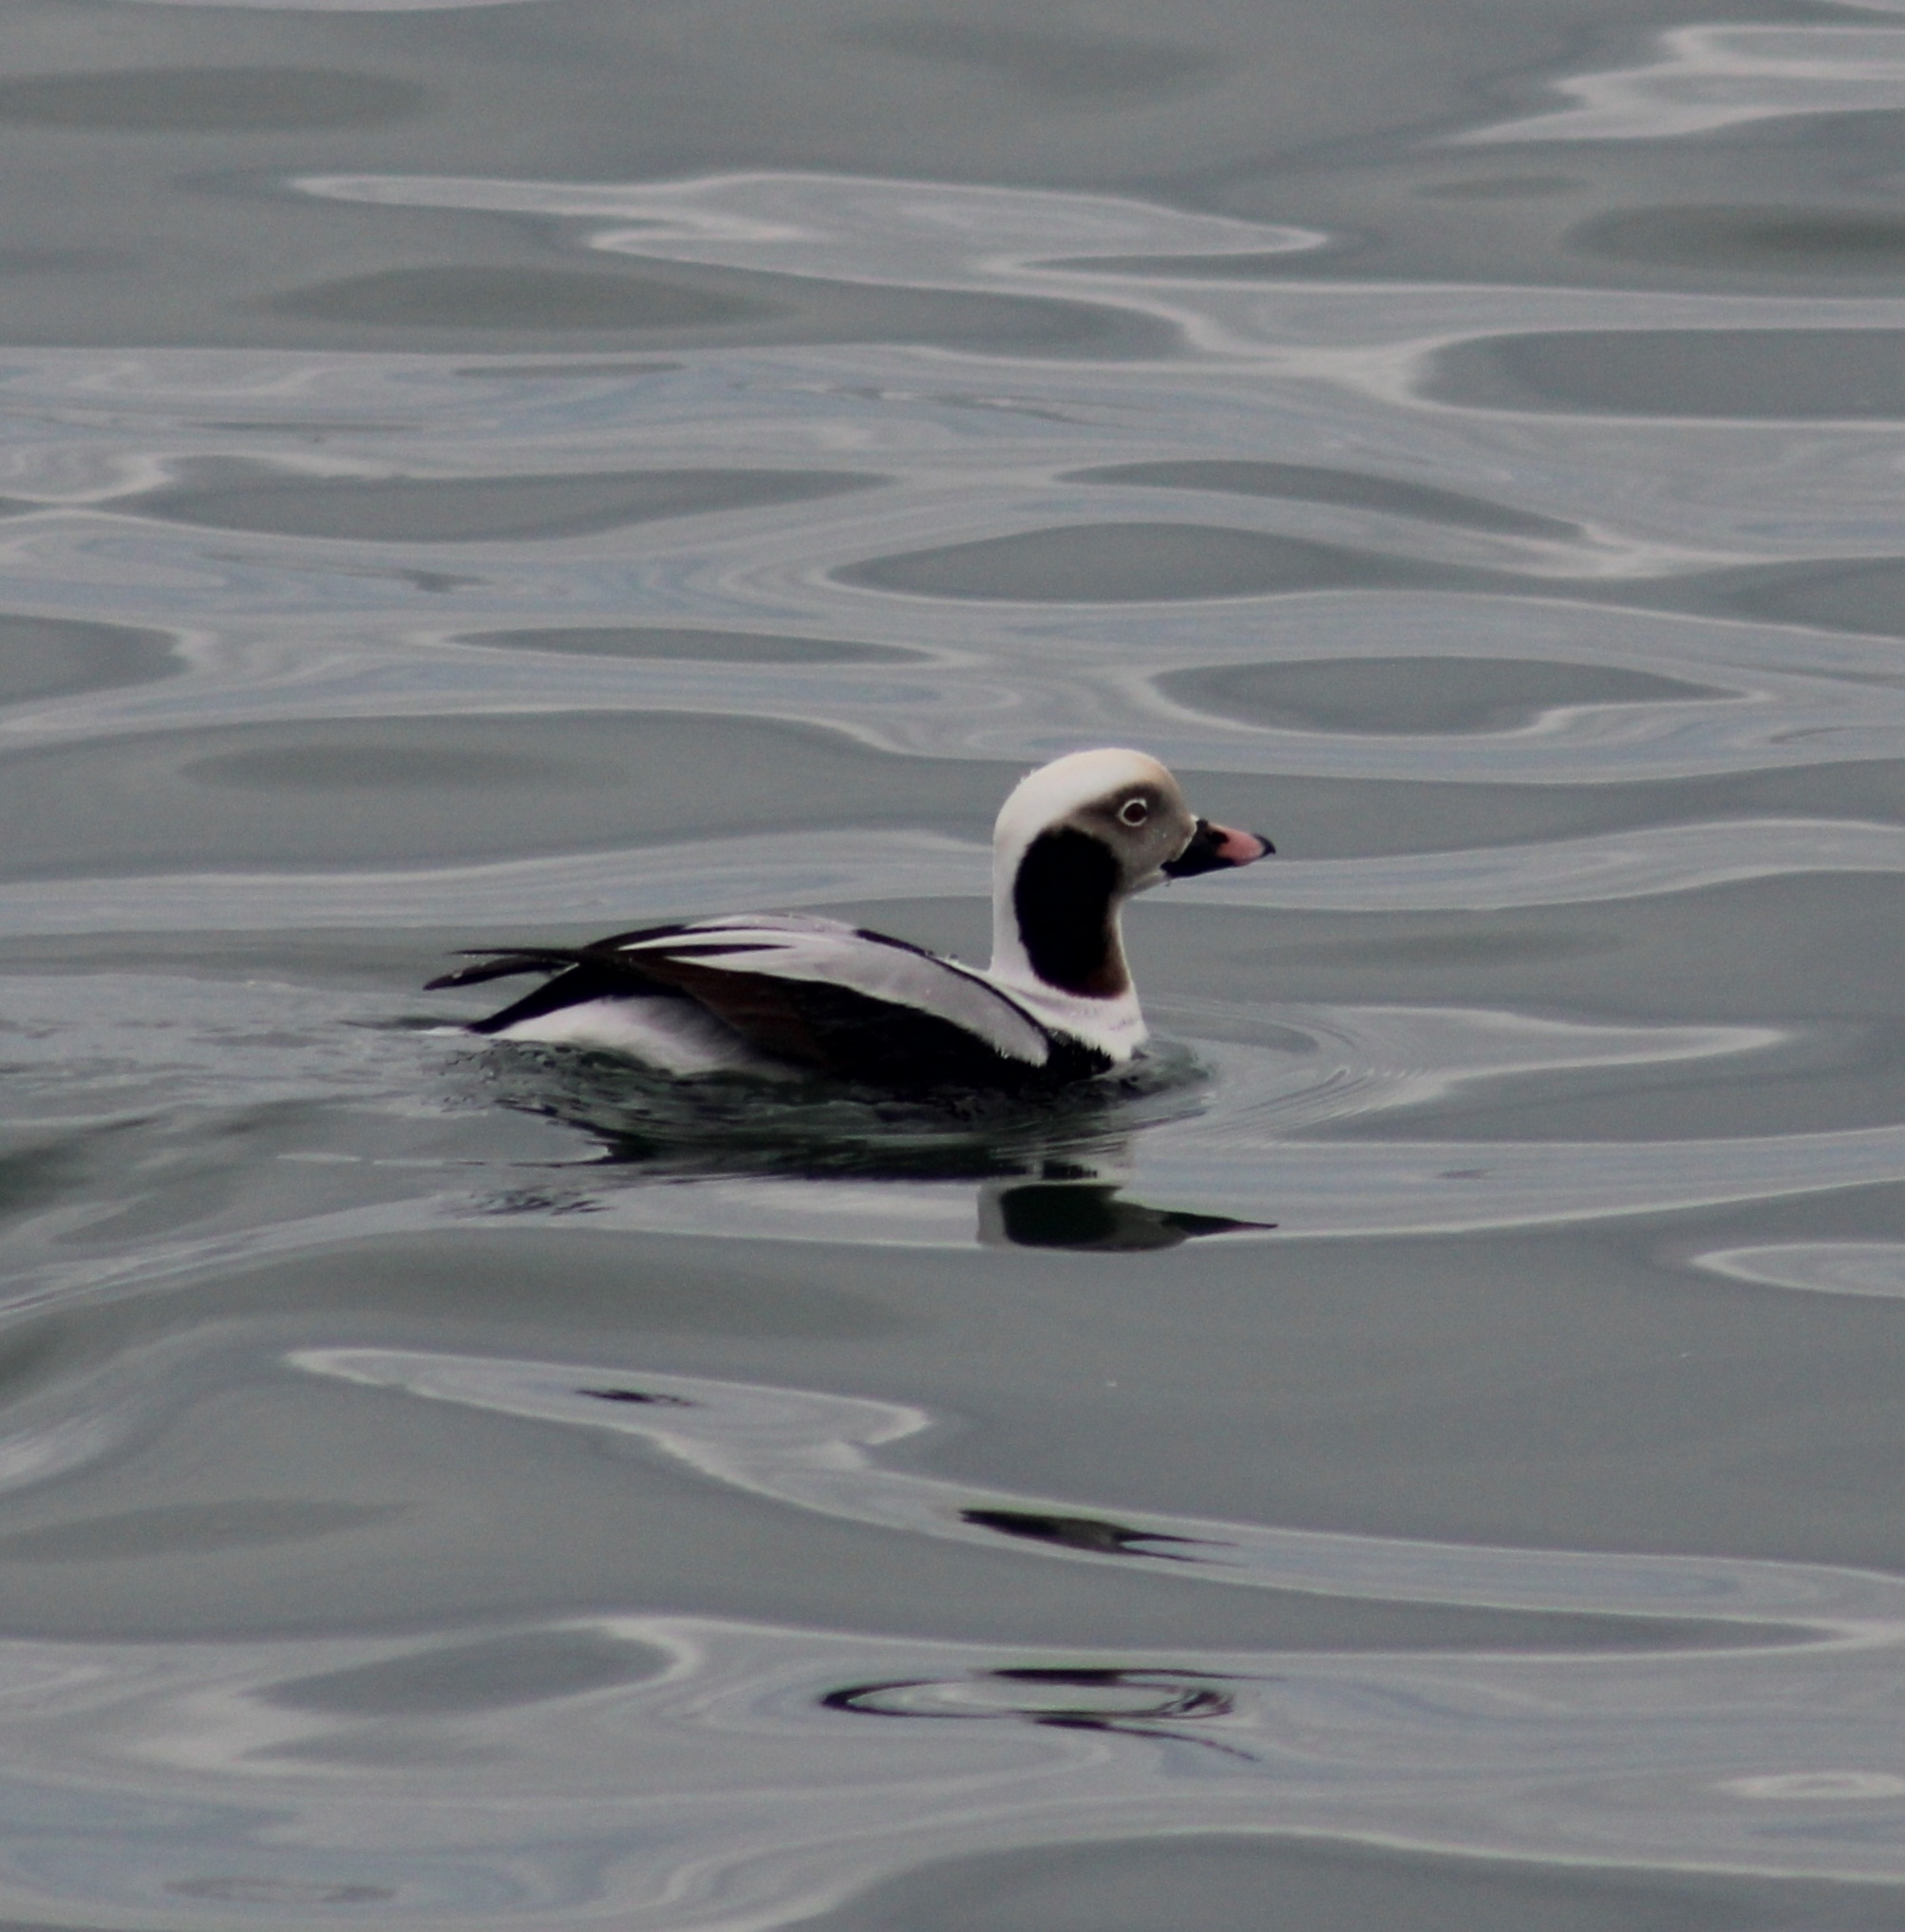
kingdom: Animalia
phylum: Chordata
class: Aves
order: Anseriformes
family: Anatidae
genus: Clangula
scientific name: Clangula hyemalis
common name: Long-tailed duck
